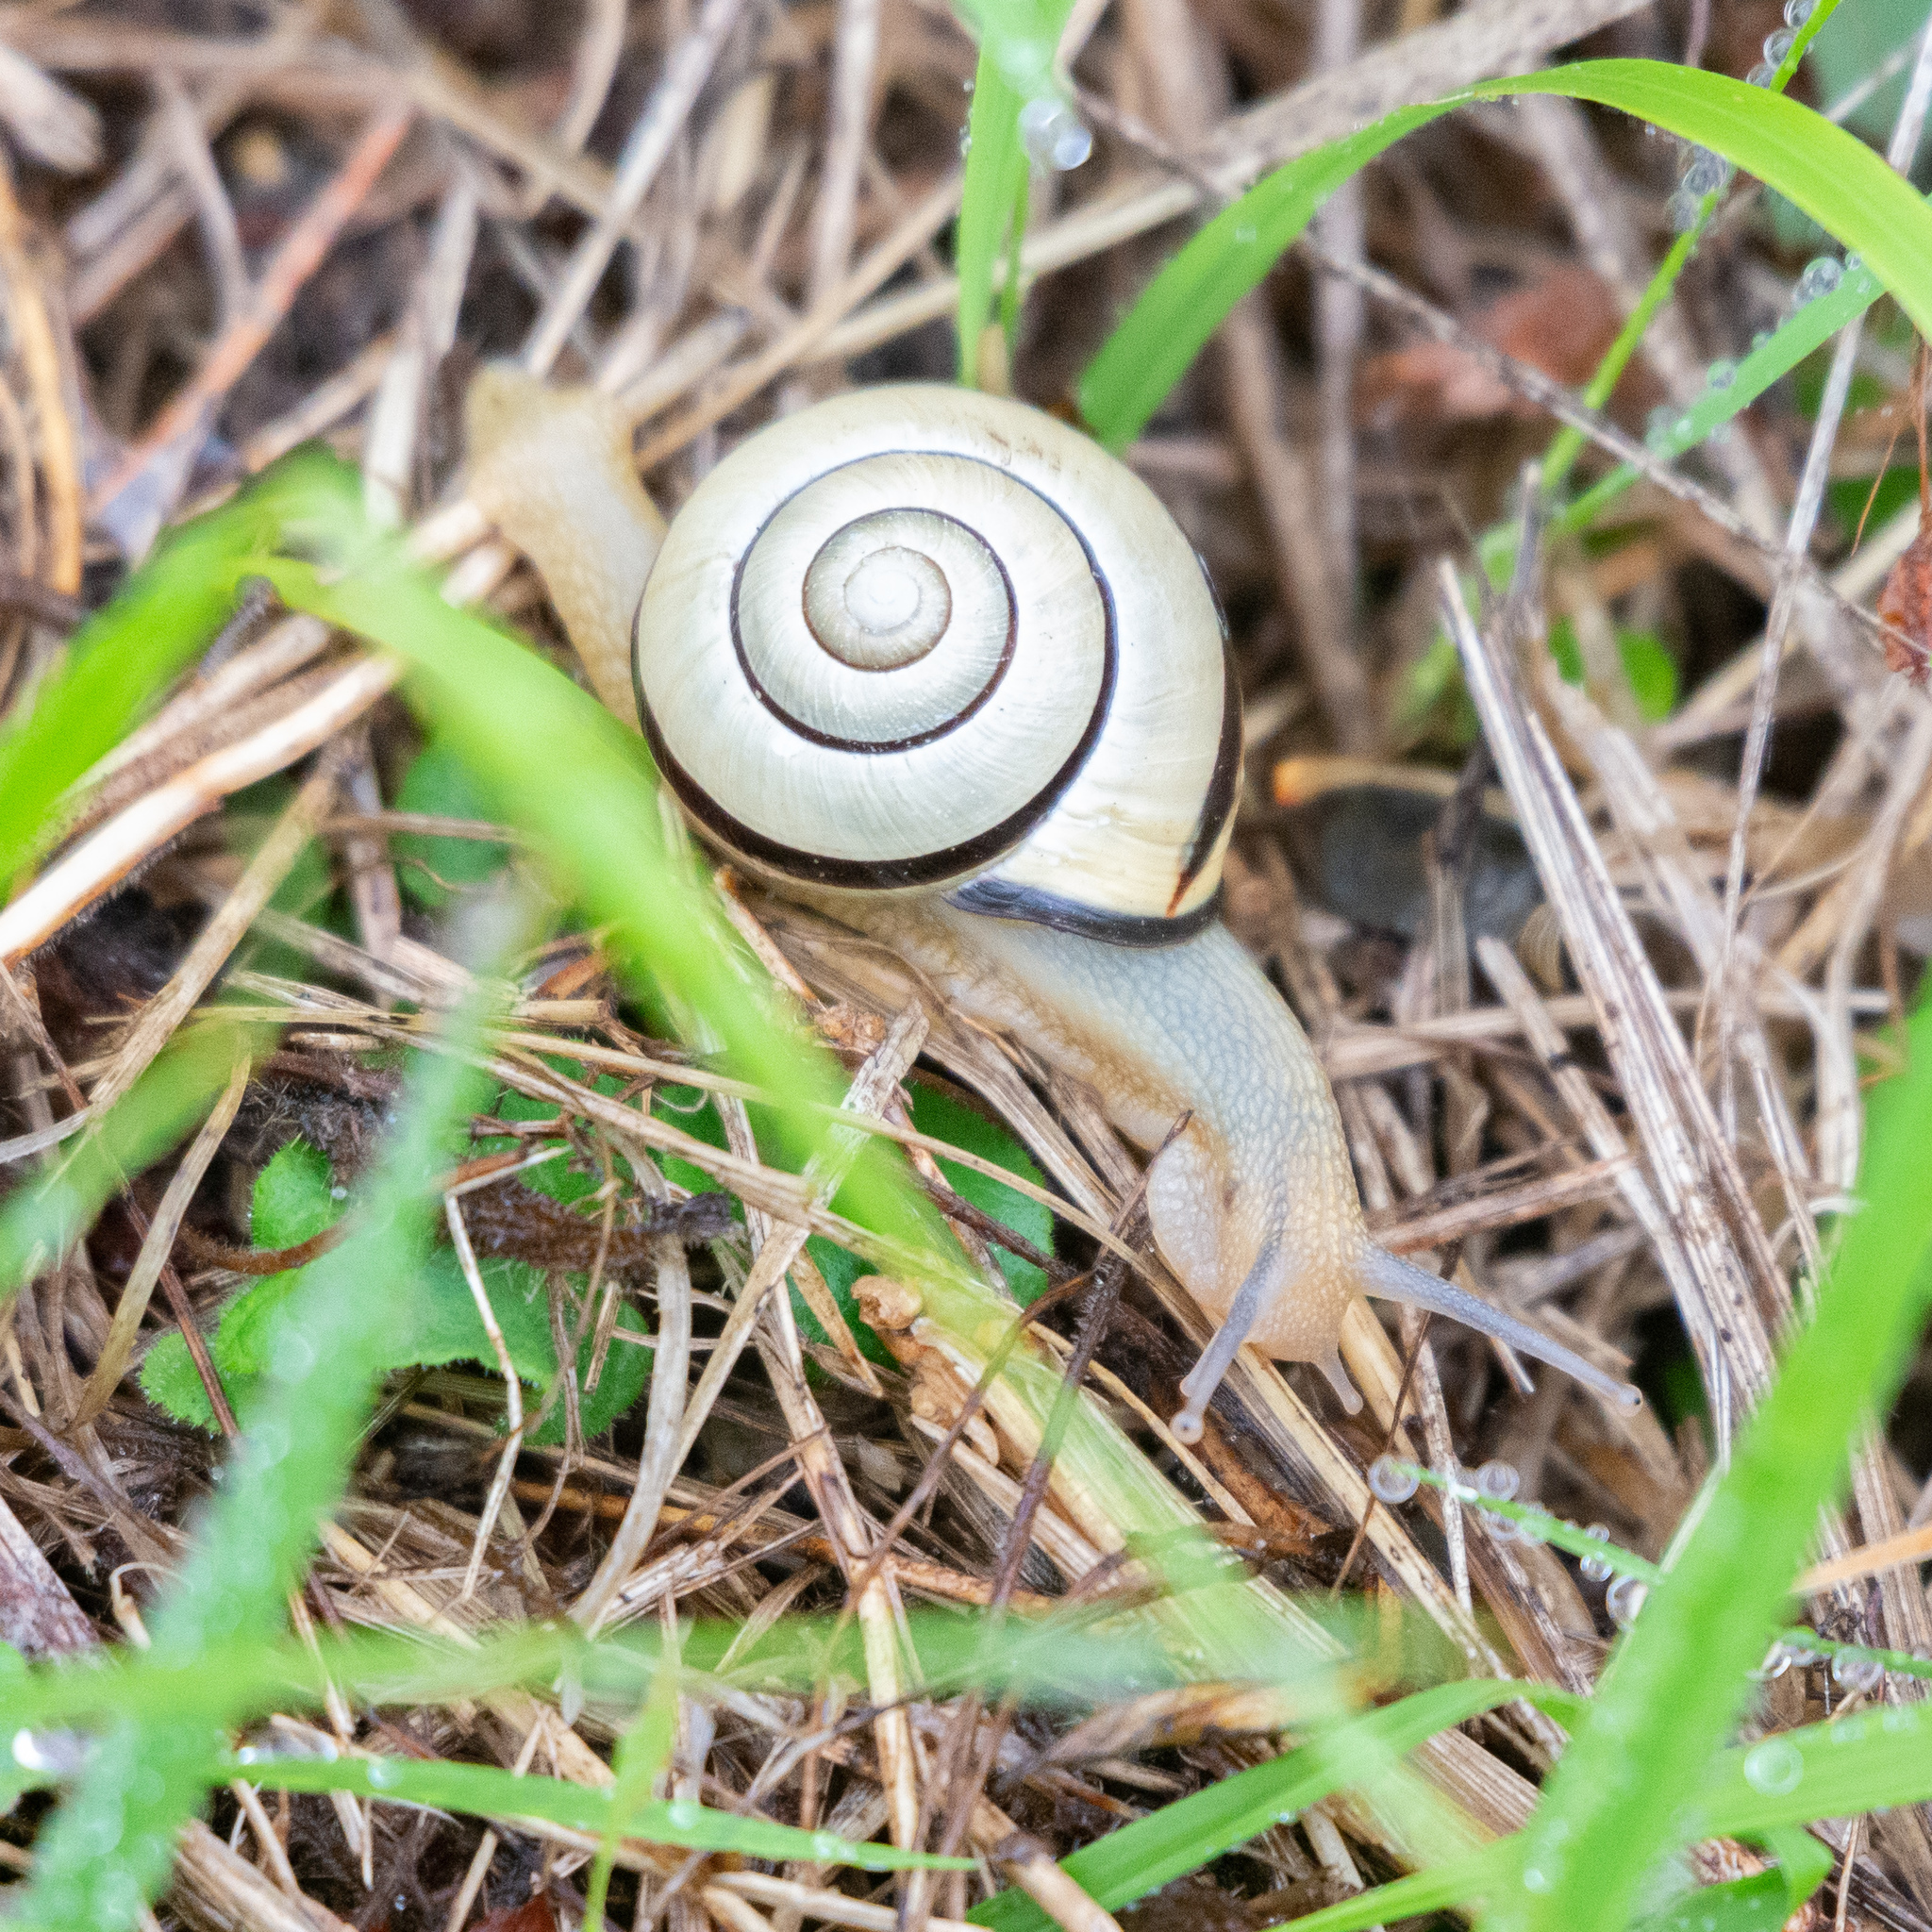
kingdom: Animalia
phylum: Mollusca
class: Gastropoda
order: Stylommatophora
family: Helicidae
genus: Cepaea
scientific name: Cepaea nemoralis
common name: Grovesnail
